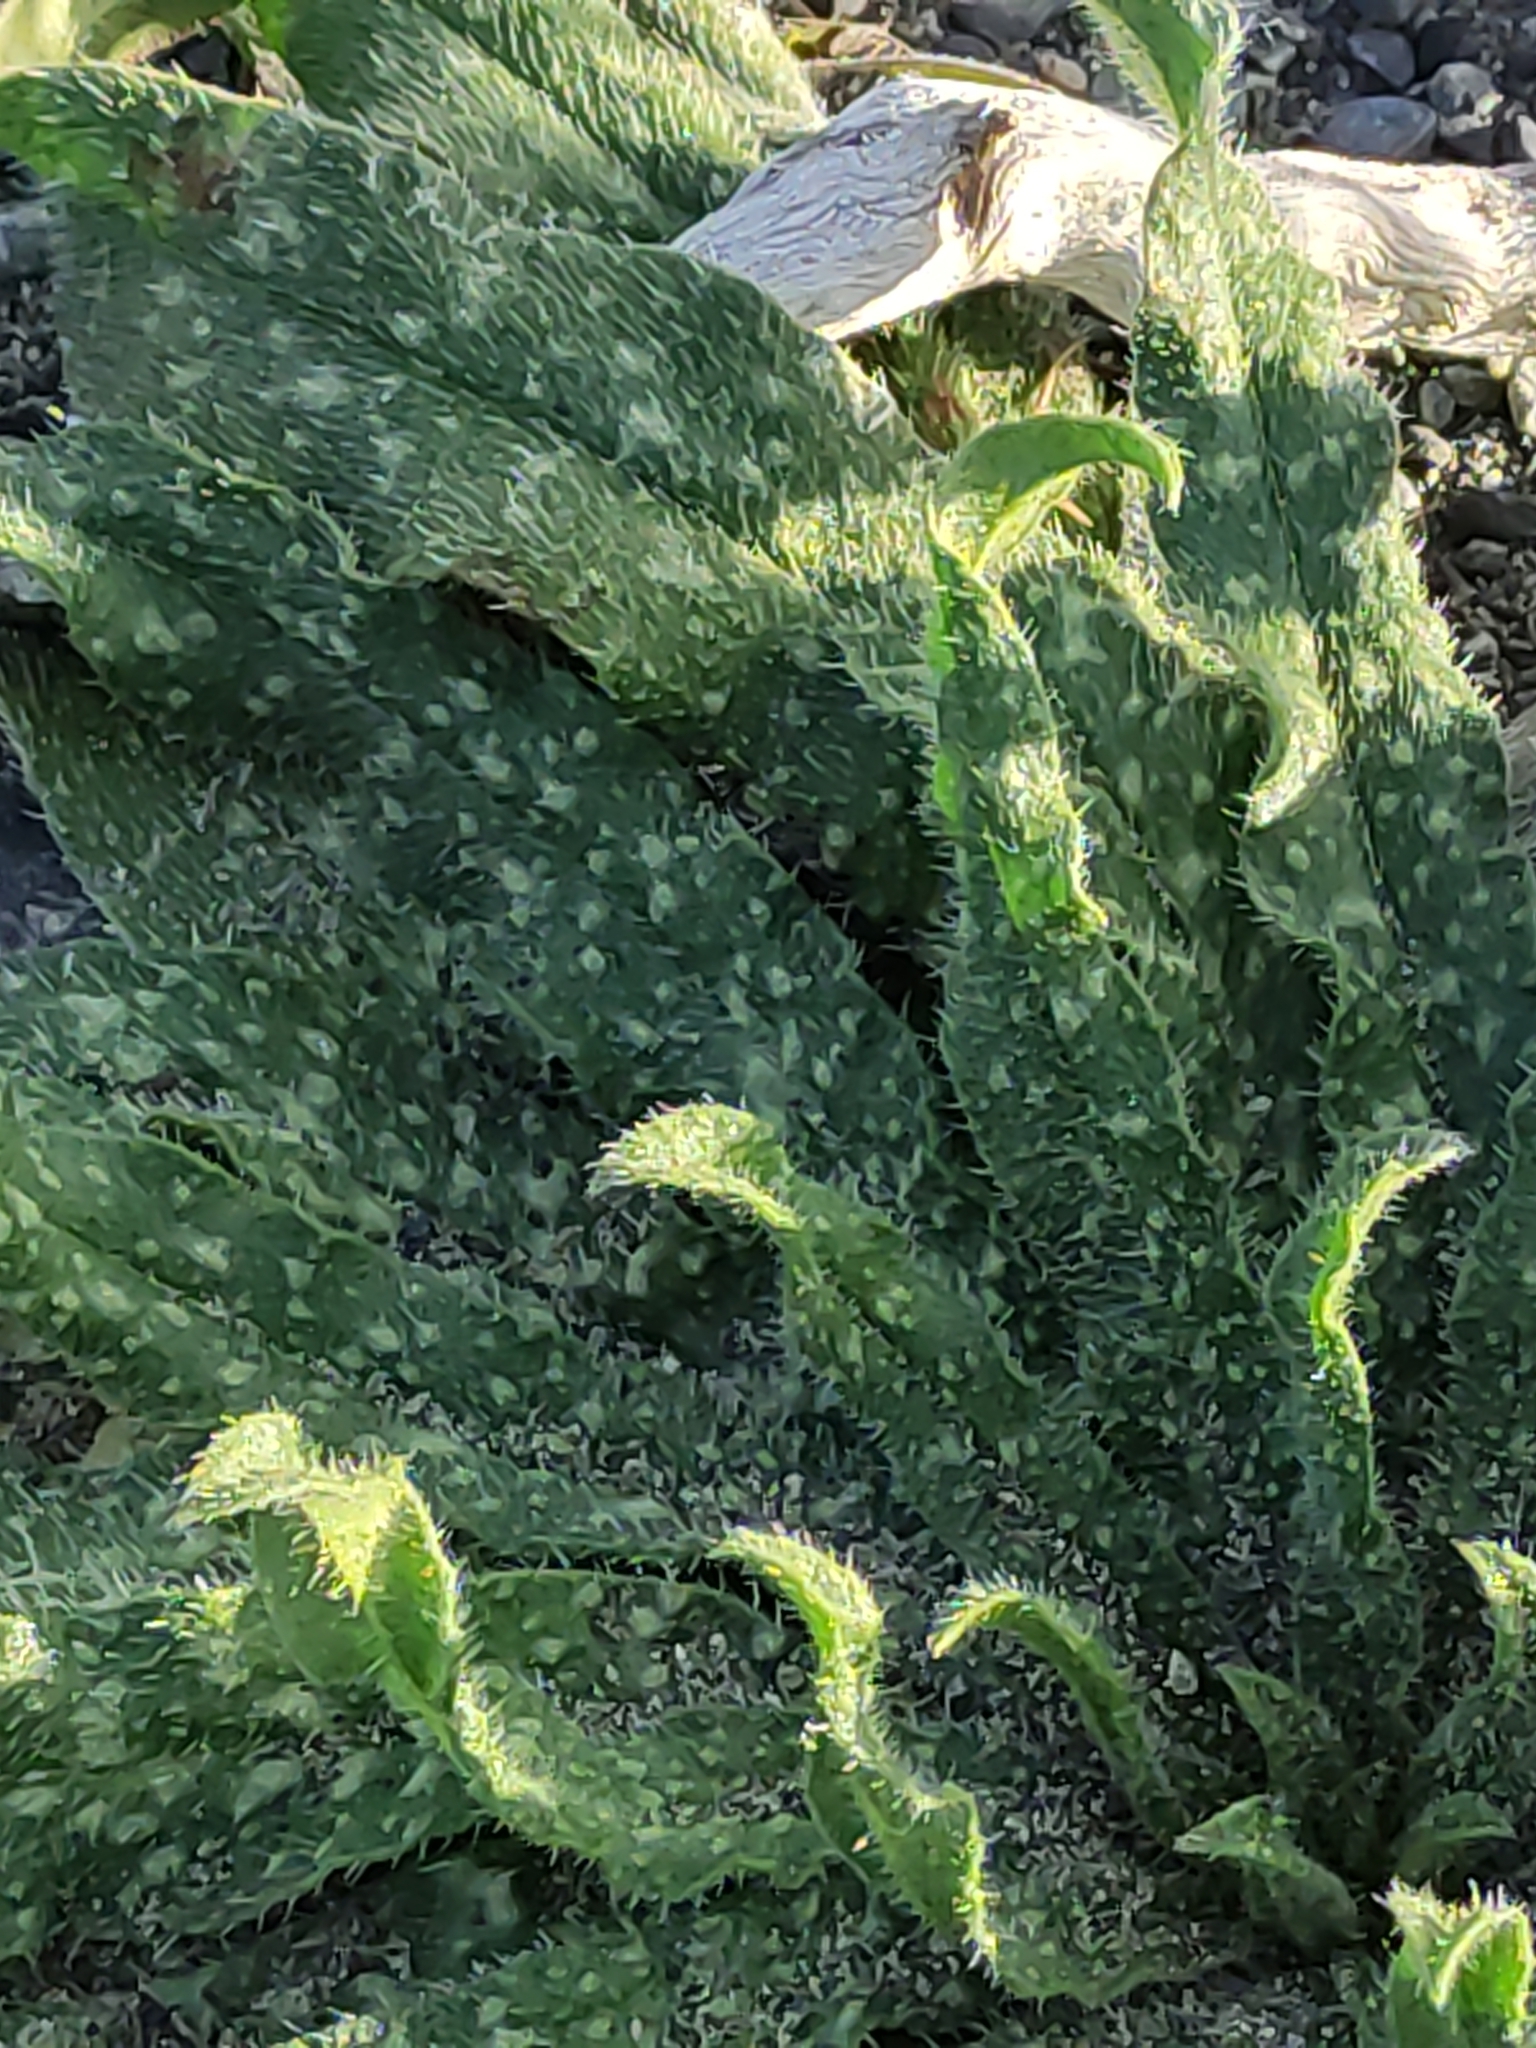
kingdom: Plantae
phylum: Tracheophyta
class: Magnoliopsida
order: Boraginales
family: Boraginaceae
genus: Echium
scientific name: Echium vulgare
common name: Common viper's bugloss
